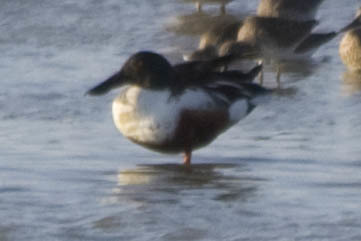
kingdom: Animalia
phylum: Chordata
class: Aves
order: Anseriformes
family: Anatidae
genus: Spatula
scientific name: Spatula clypeata
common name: Northern shoveler
